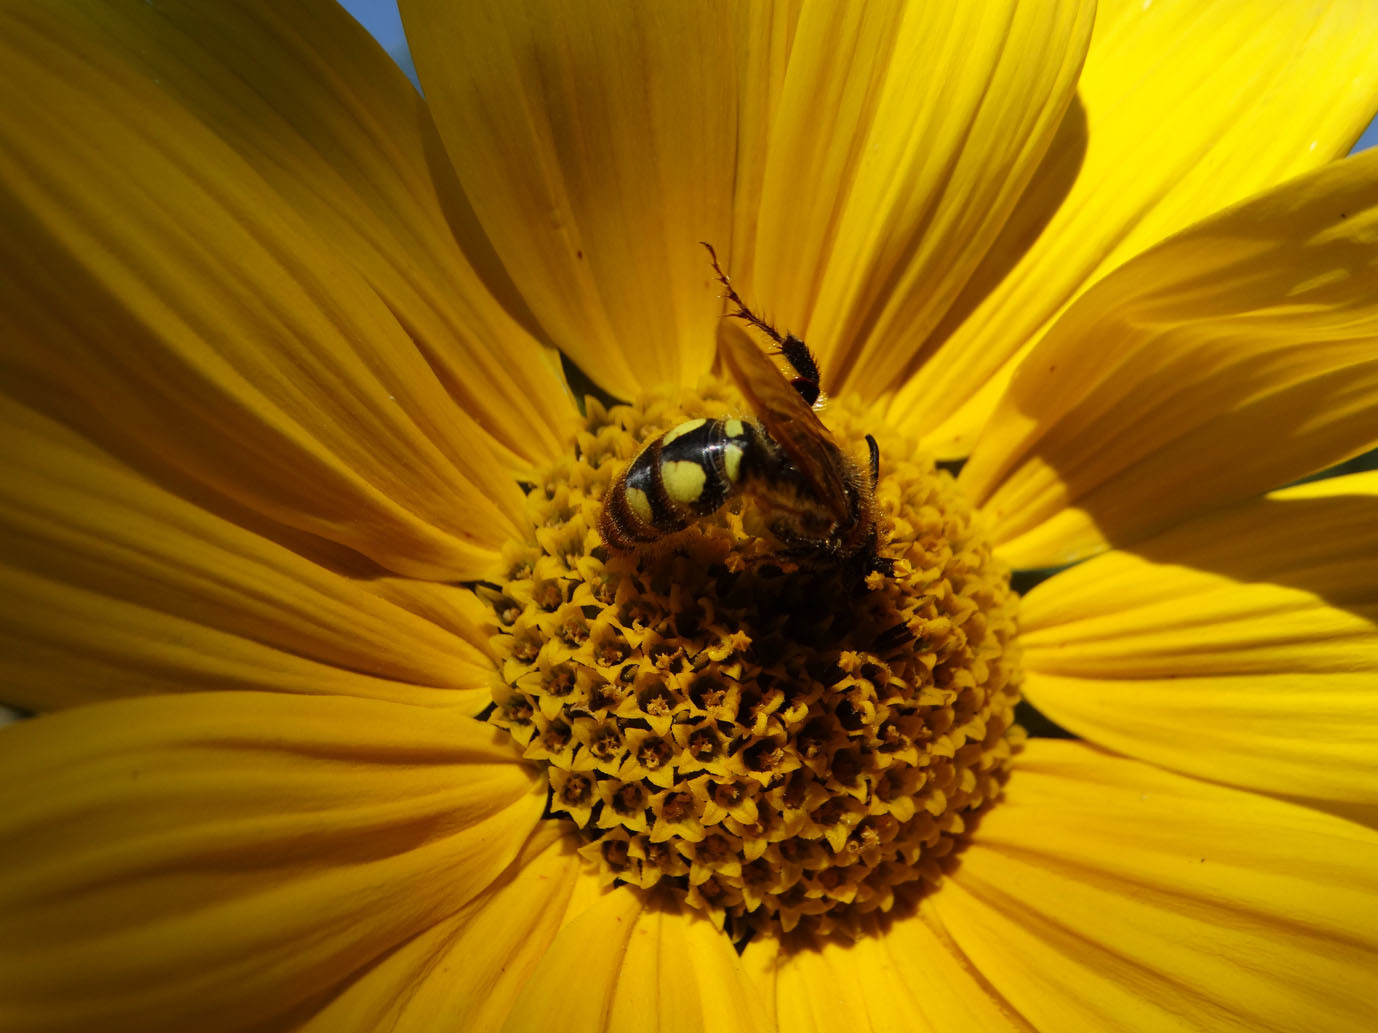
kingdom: Animalia
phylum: Arthropoda
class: Insecta
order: Hymenoptera
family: Scoliidae
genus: Xantocampsomeris
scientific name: Xantocampsomeris limosa
